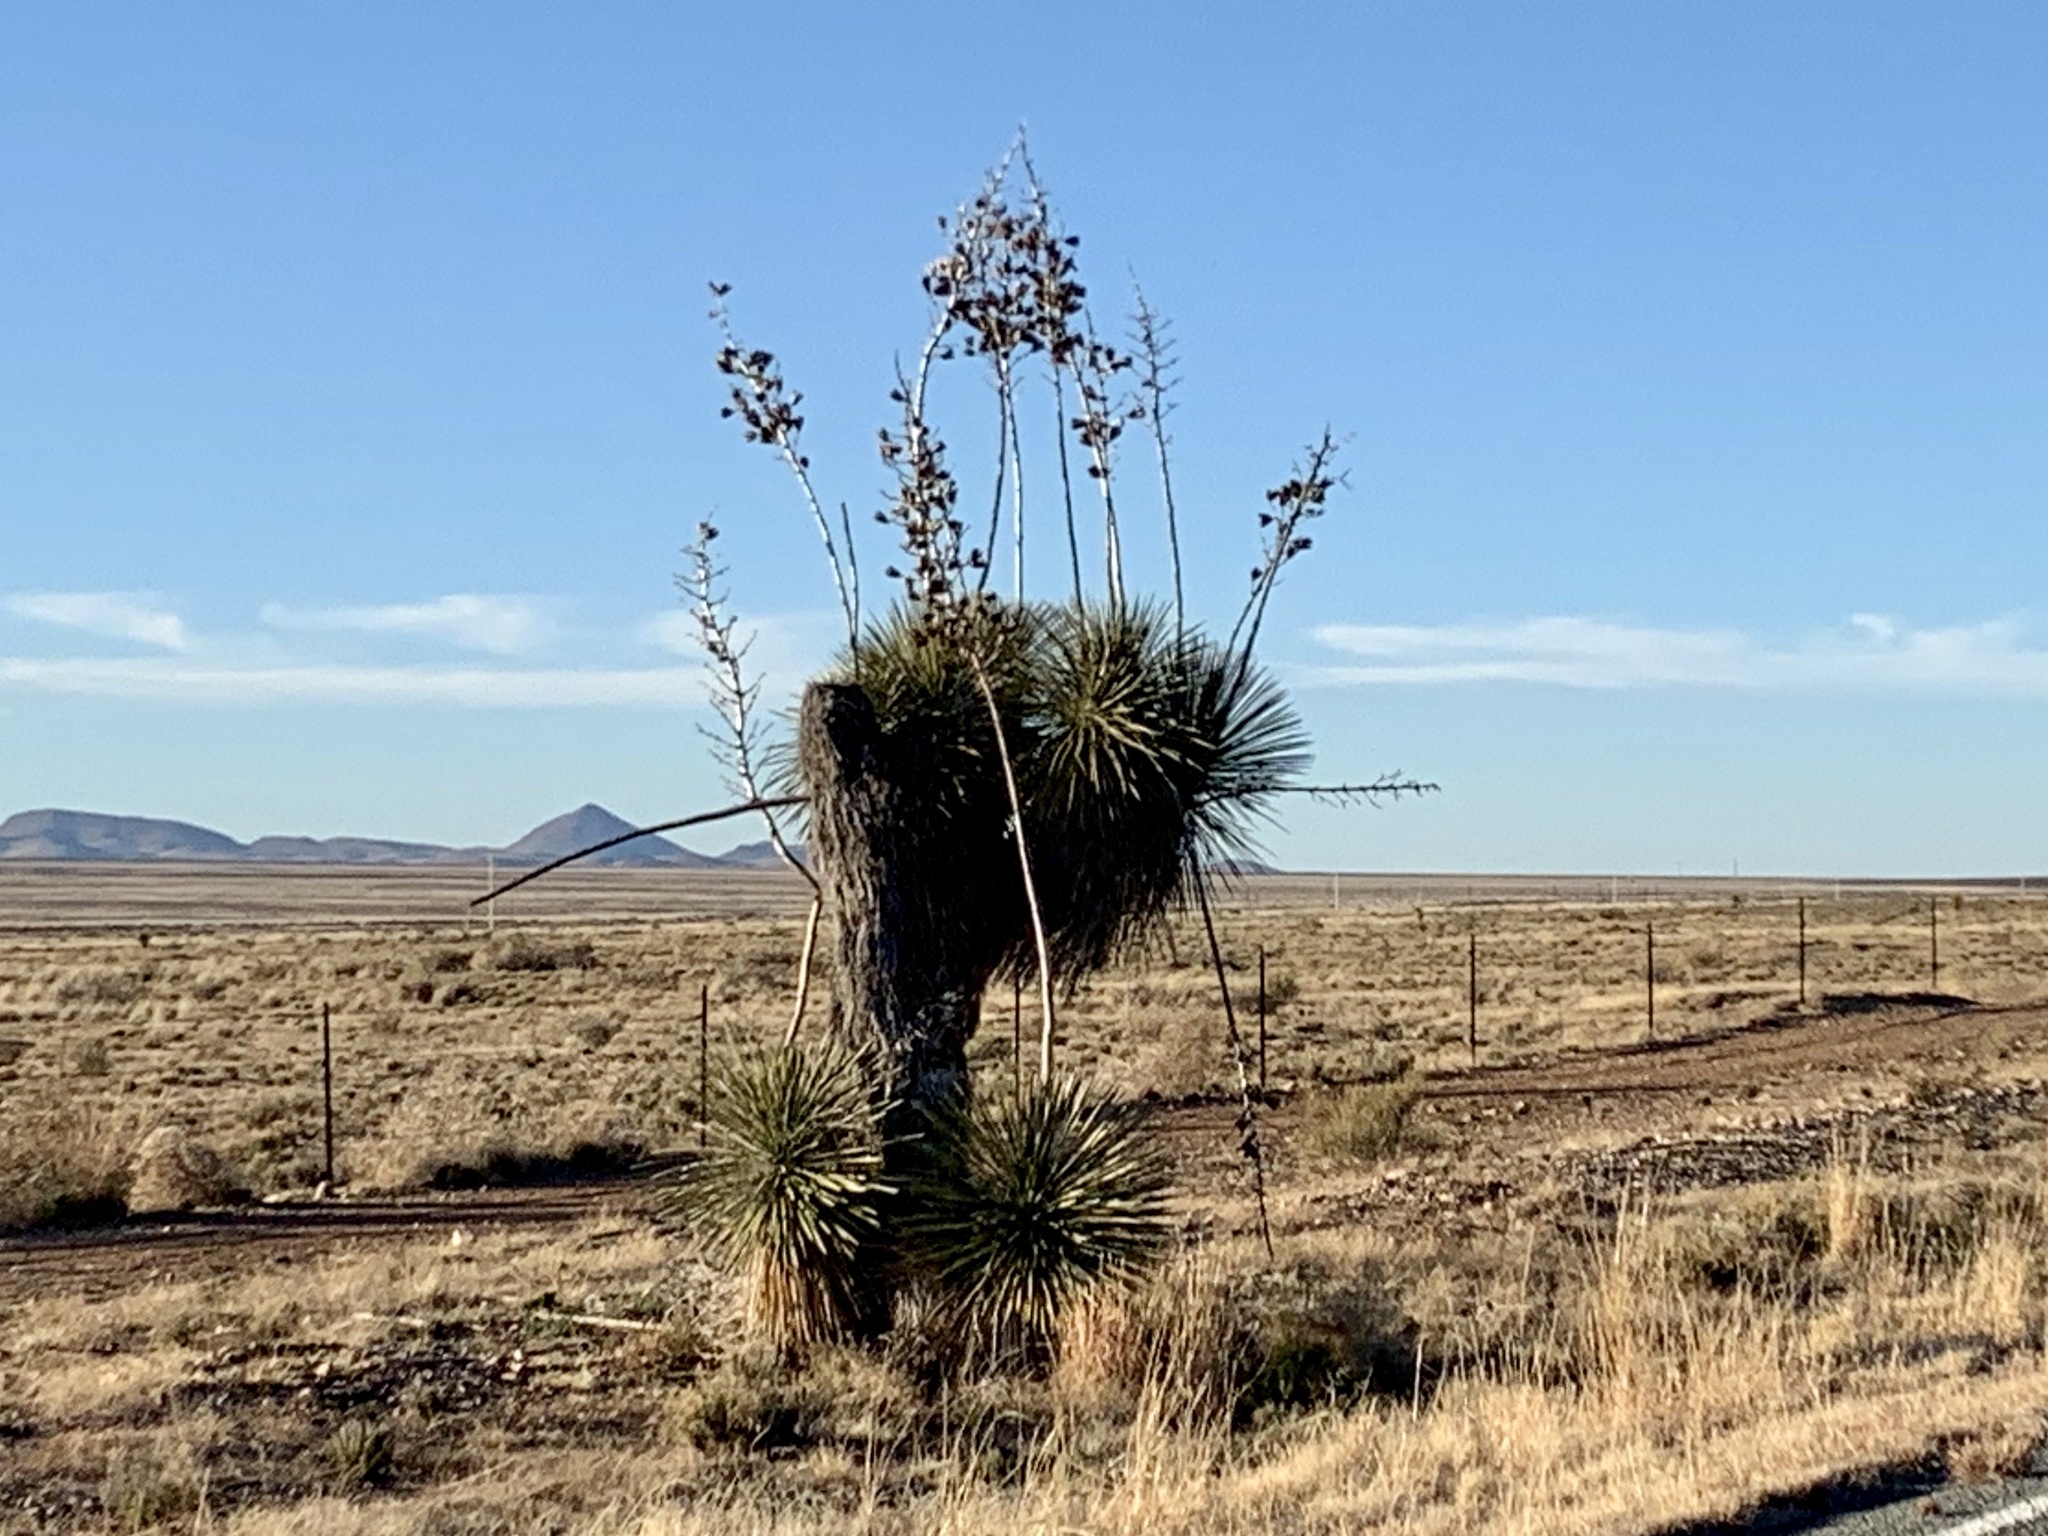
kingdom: Plantae
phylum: Tracheophyta
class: Liliopsida
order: Asparagales
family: Asparagaceae
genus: Yucca
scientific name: Yucca elata
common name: Palmella
